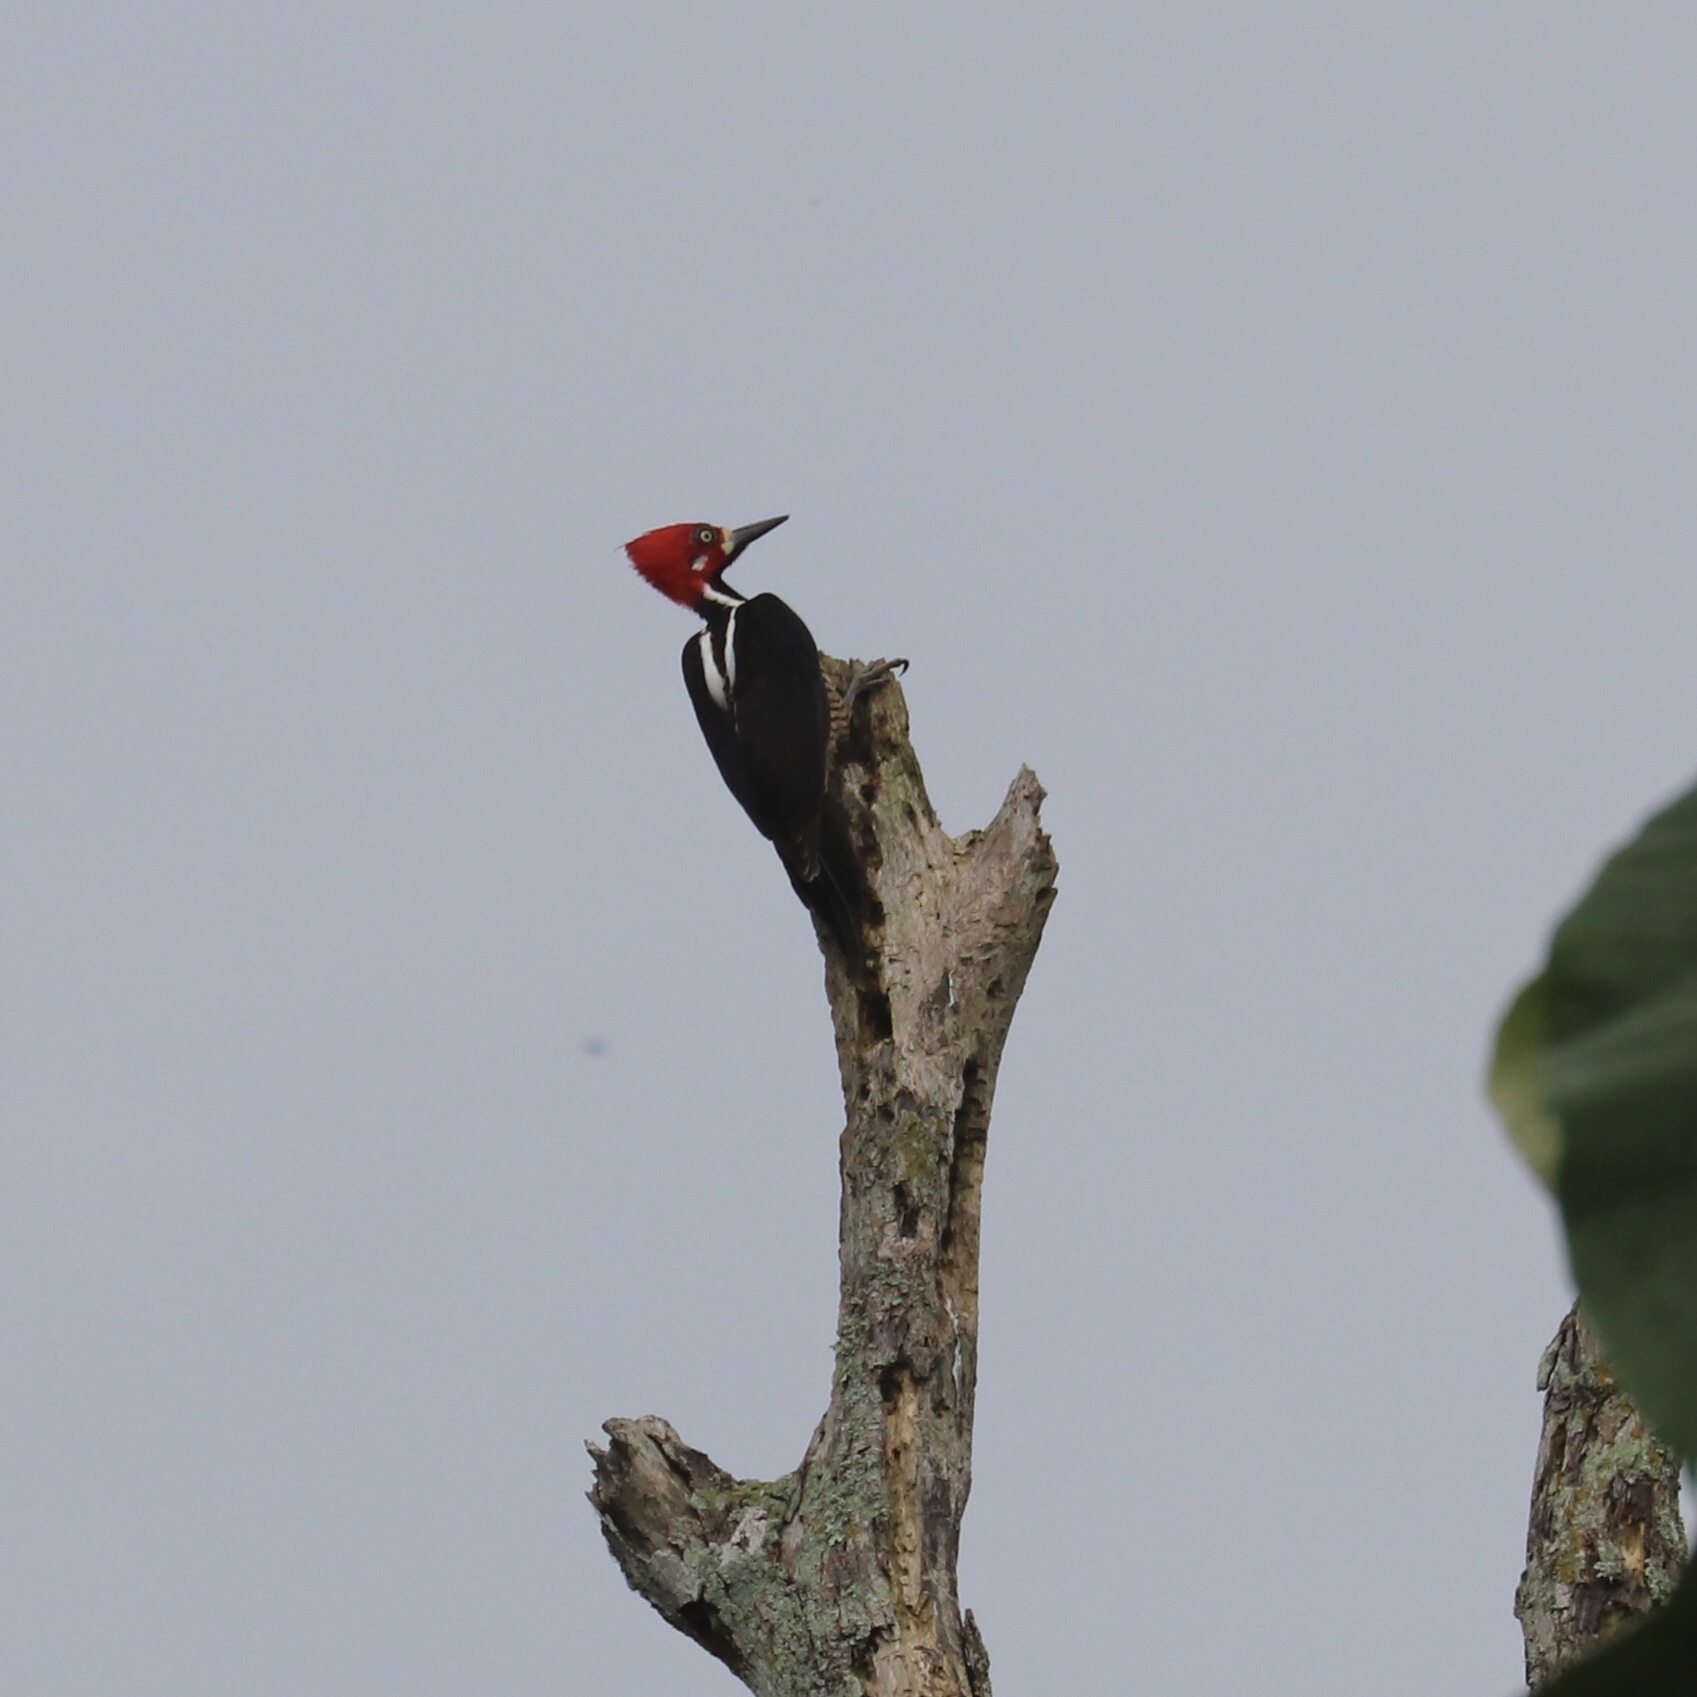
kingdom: Animalia
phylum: Chordata
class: Aves
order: Piciformes
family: Picidae
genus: Campephilus
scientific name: Campephilus melanoleucos
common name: Crimson-crested woodpecker
